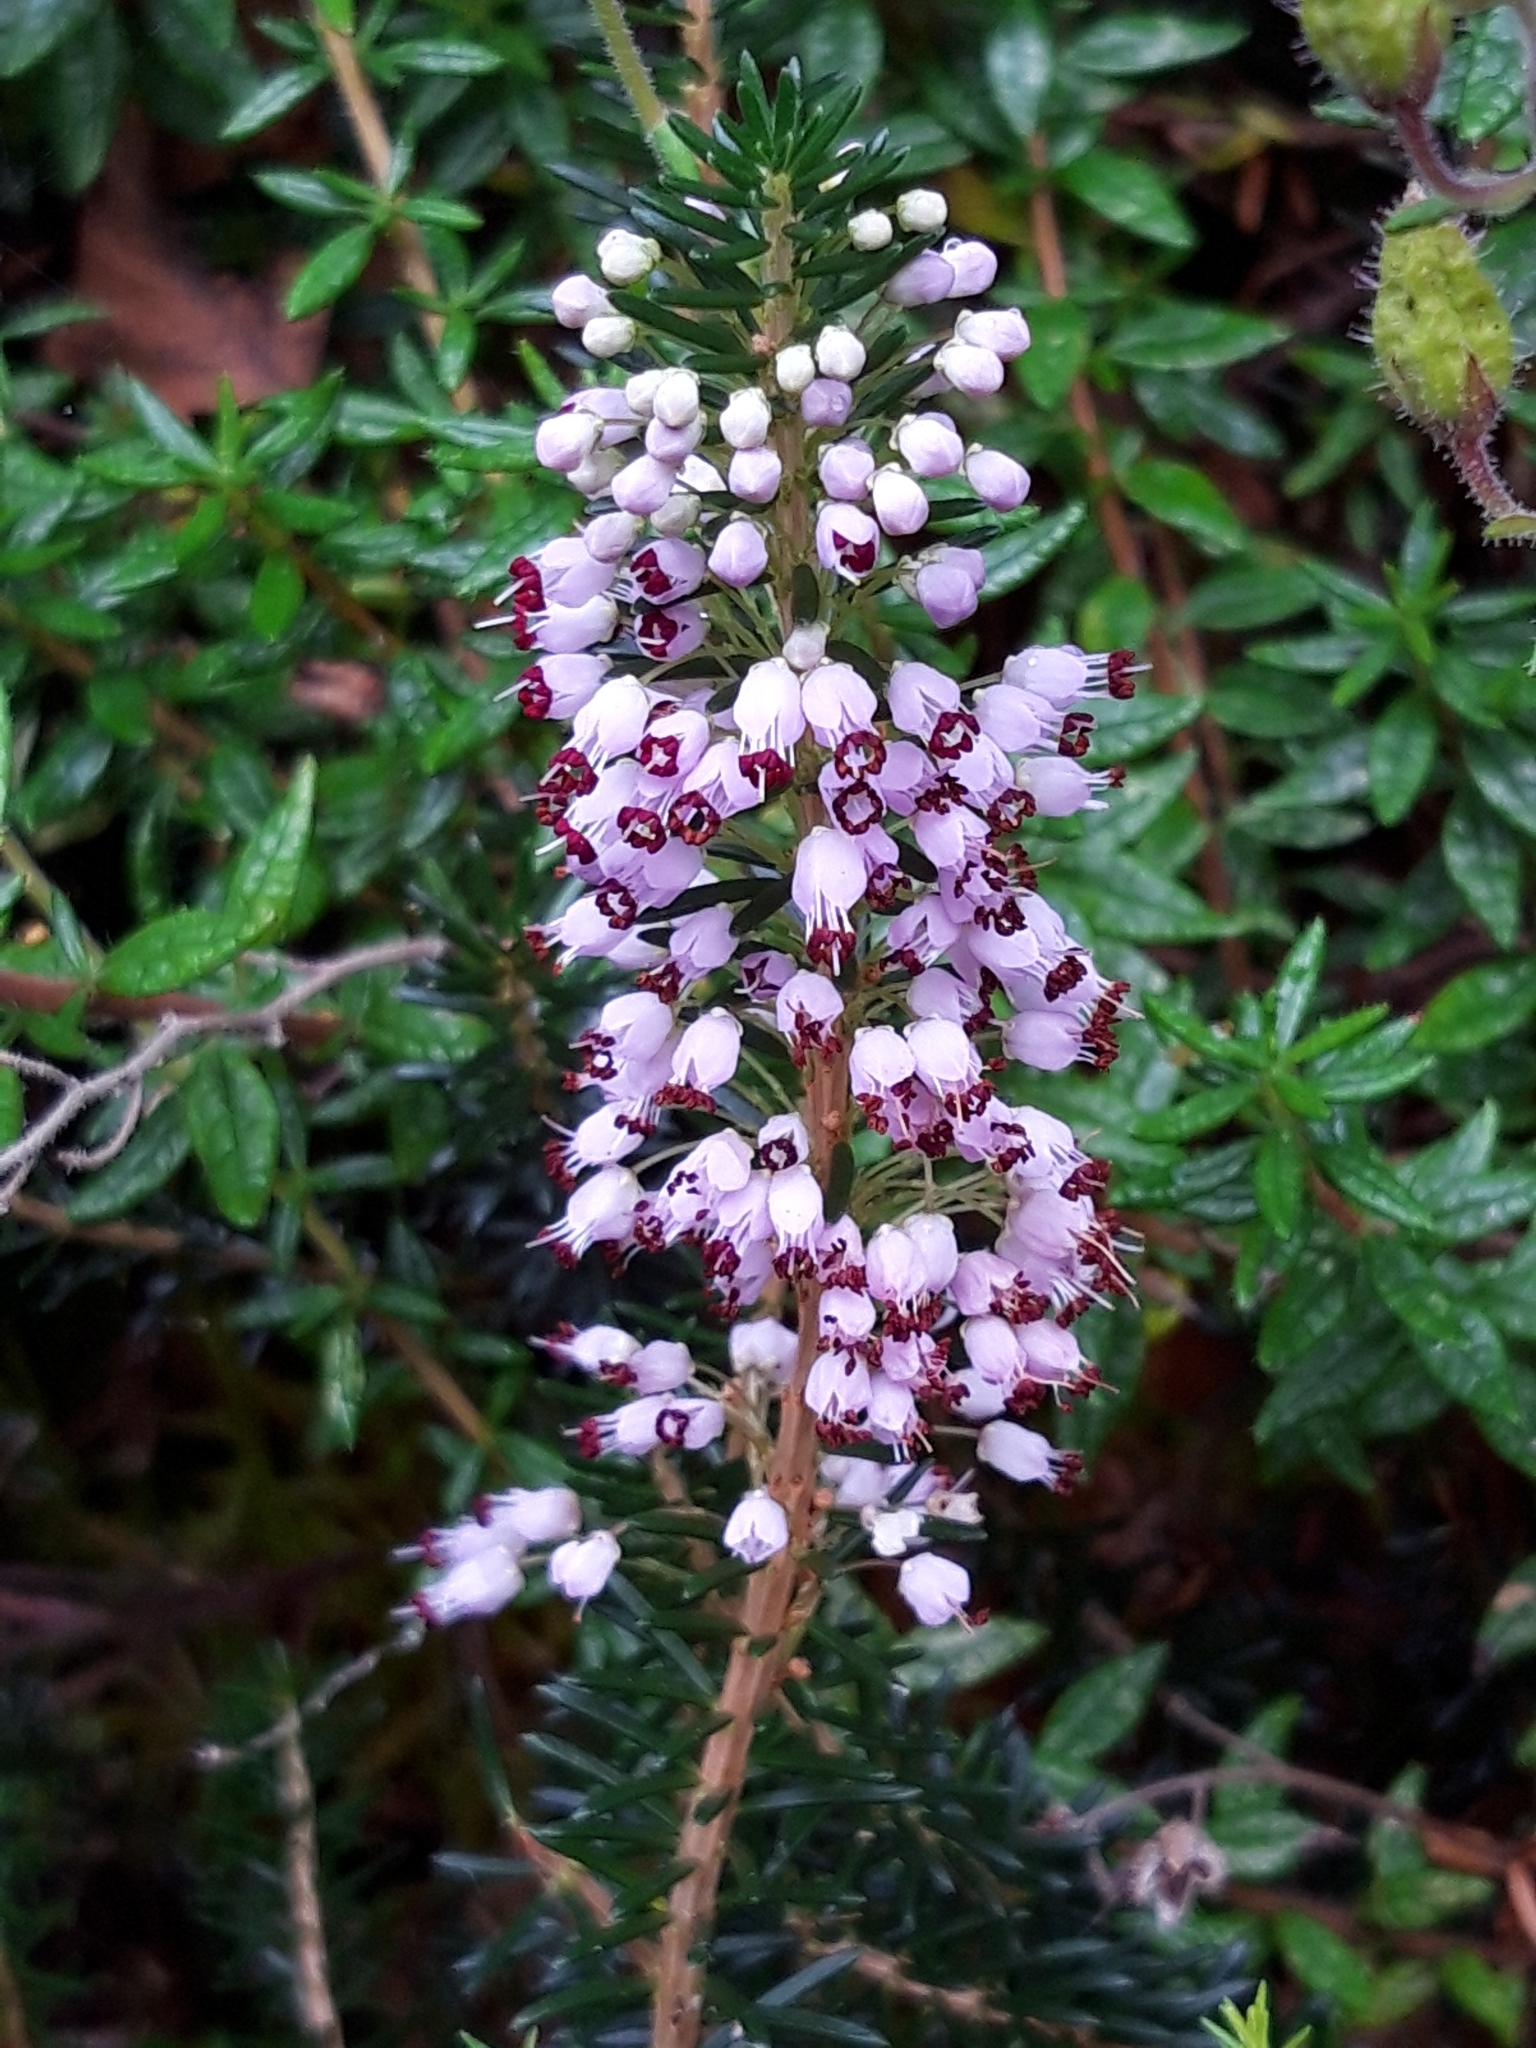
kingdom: Plantae
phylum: Tracheophyta
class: Magnoliopsida
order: Ericales
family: Ericaceae
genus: Erica
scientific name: Erica vagans
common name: Cornish heath
